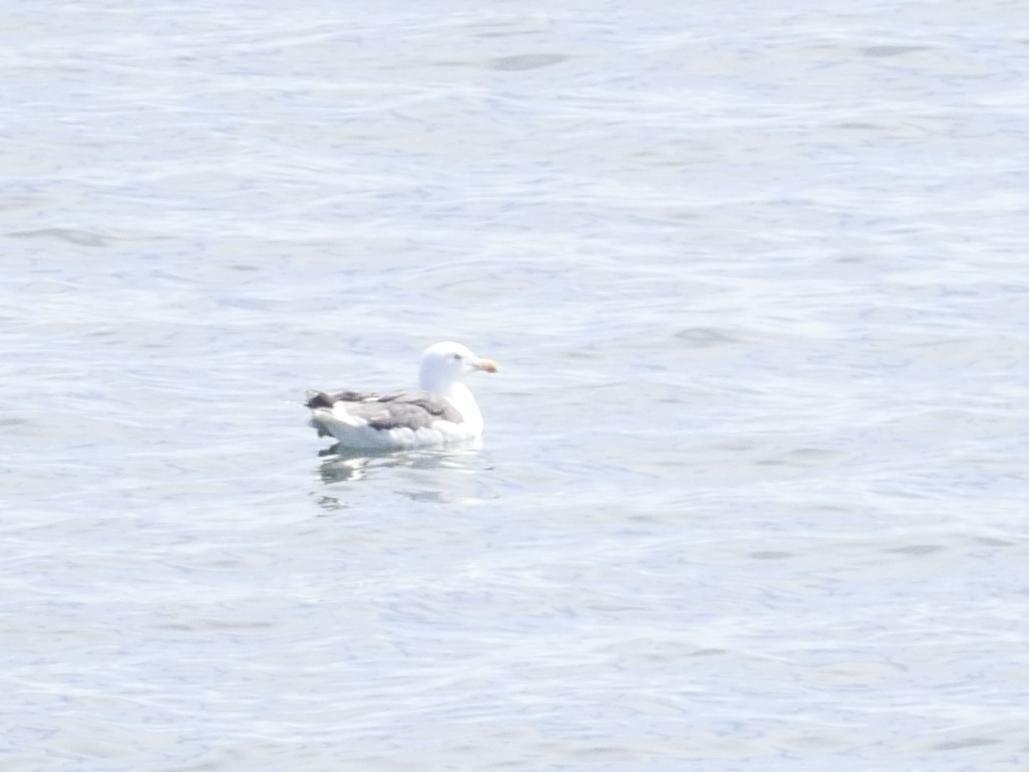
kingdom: Animalia
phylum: Chordata
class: Aves
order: Charadriiformes
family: Laridae
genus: Larus
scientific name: Larus marinus
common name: Great black-backed gull
